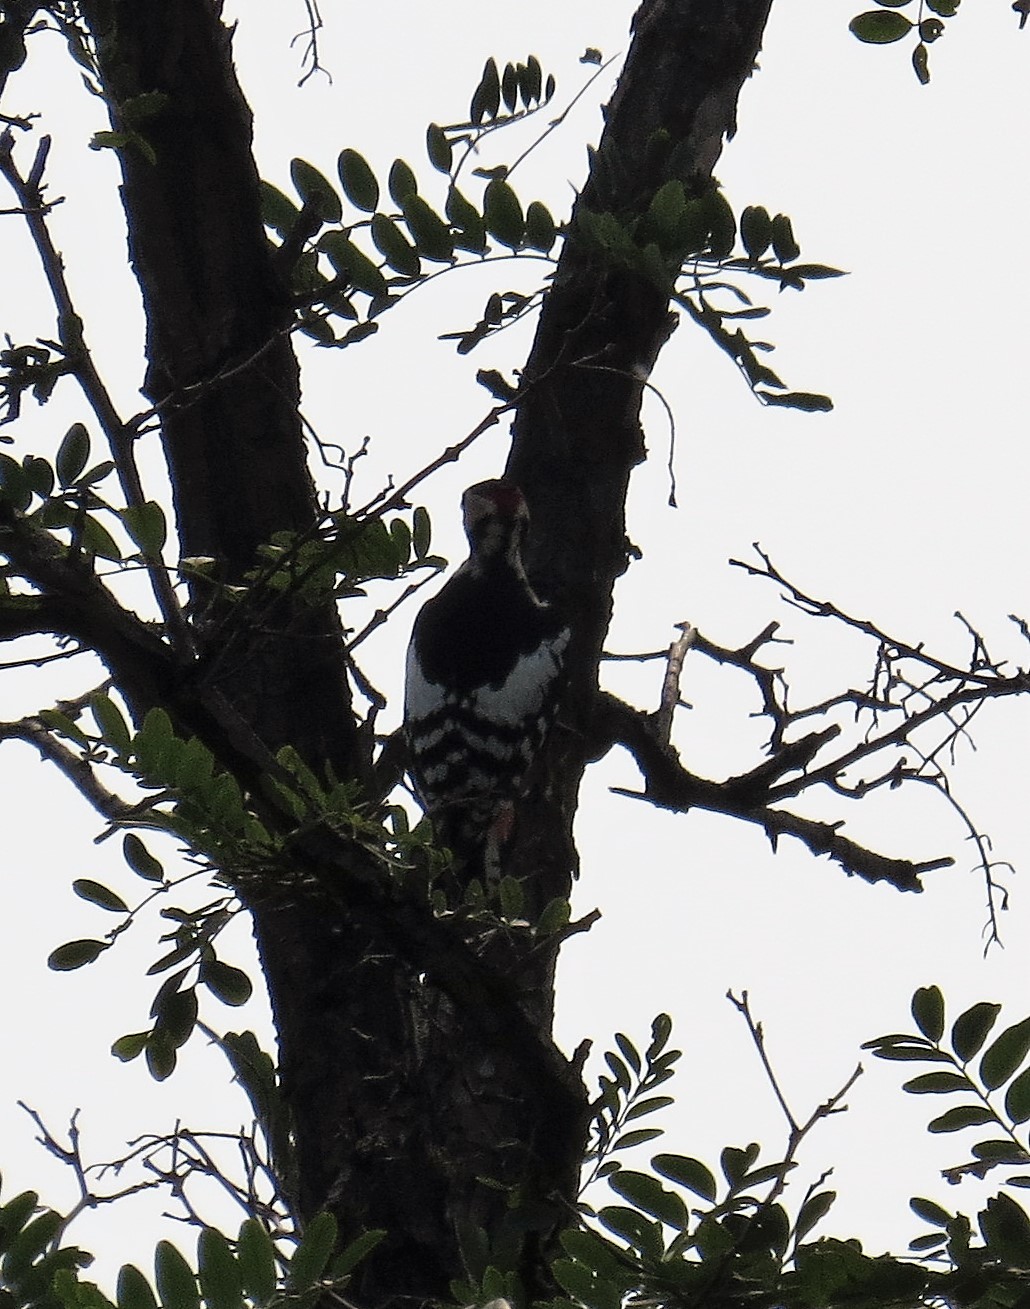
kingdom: Animalia
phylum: Chordata
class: Aves
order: Piciformes
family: Picidae
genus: Dendrocopos
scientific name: Dendrocopos major
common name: Great spotted woodpecker
